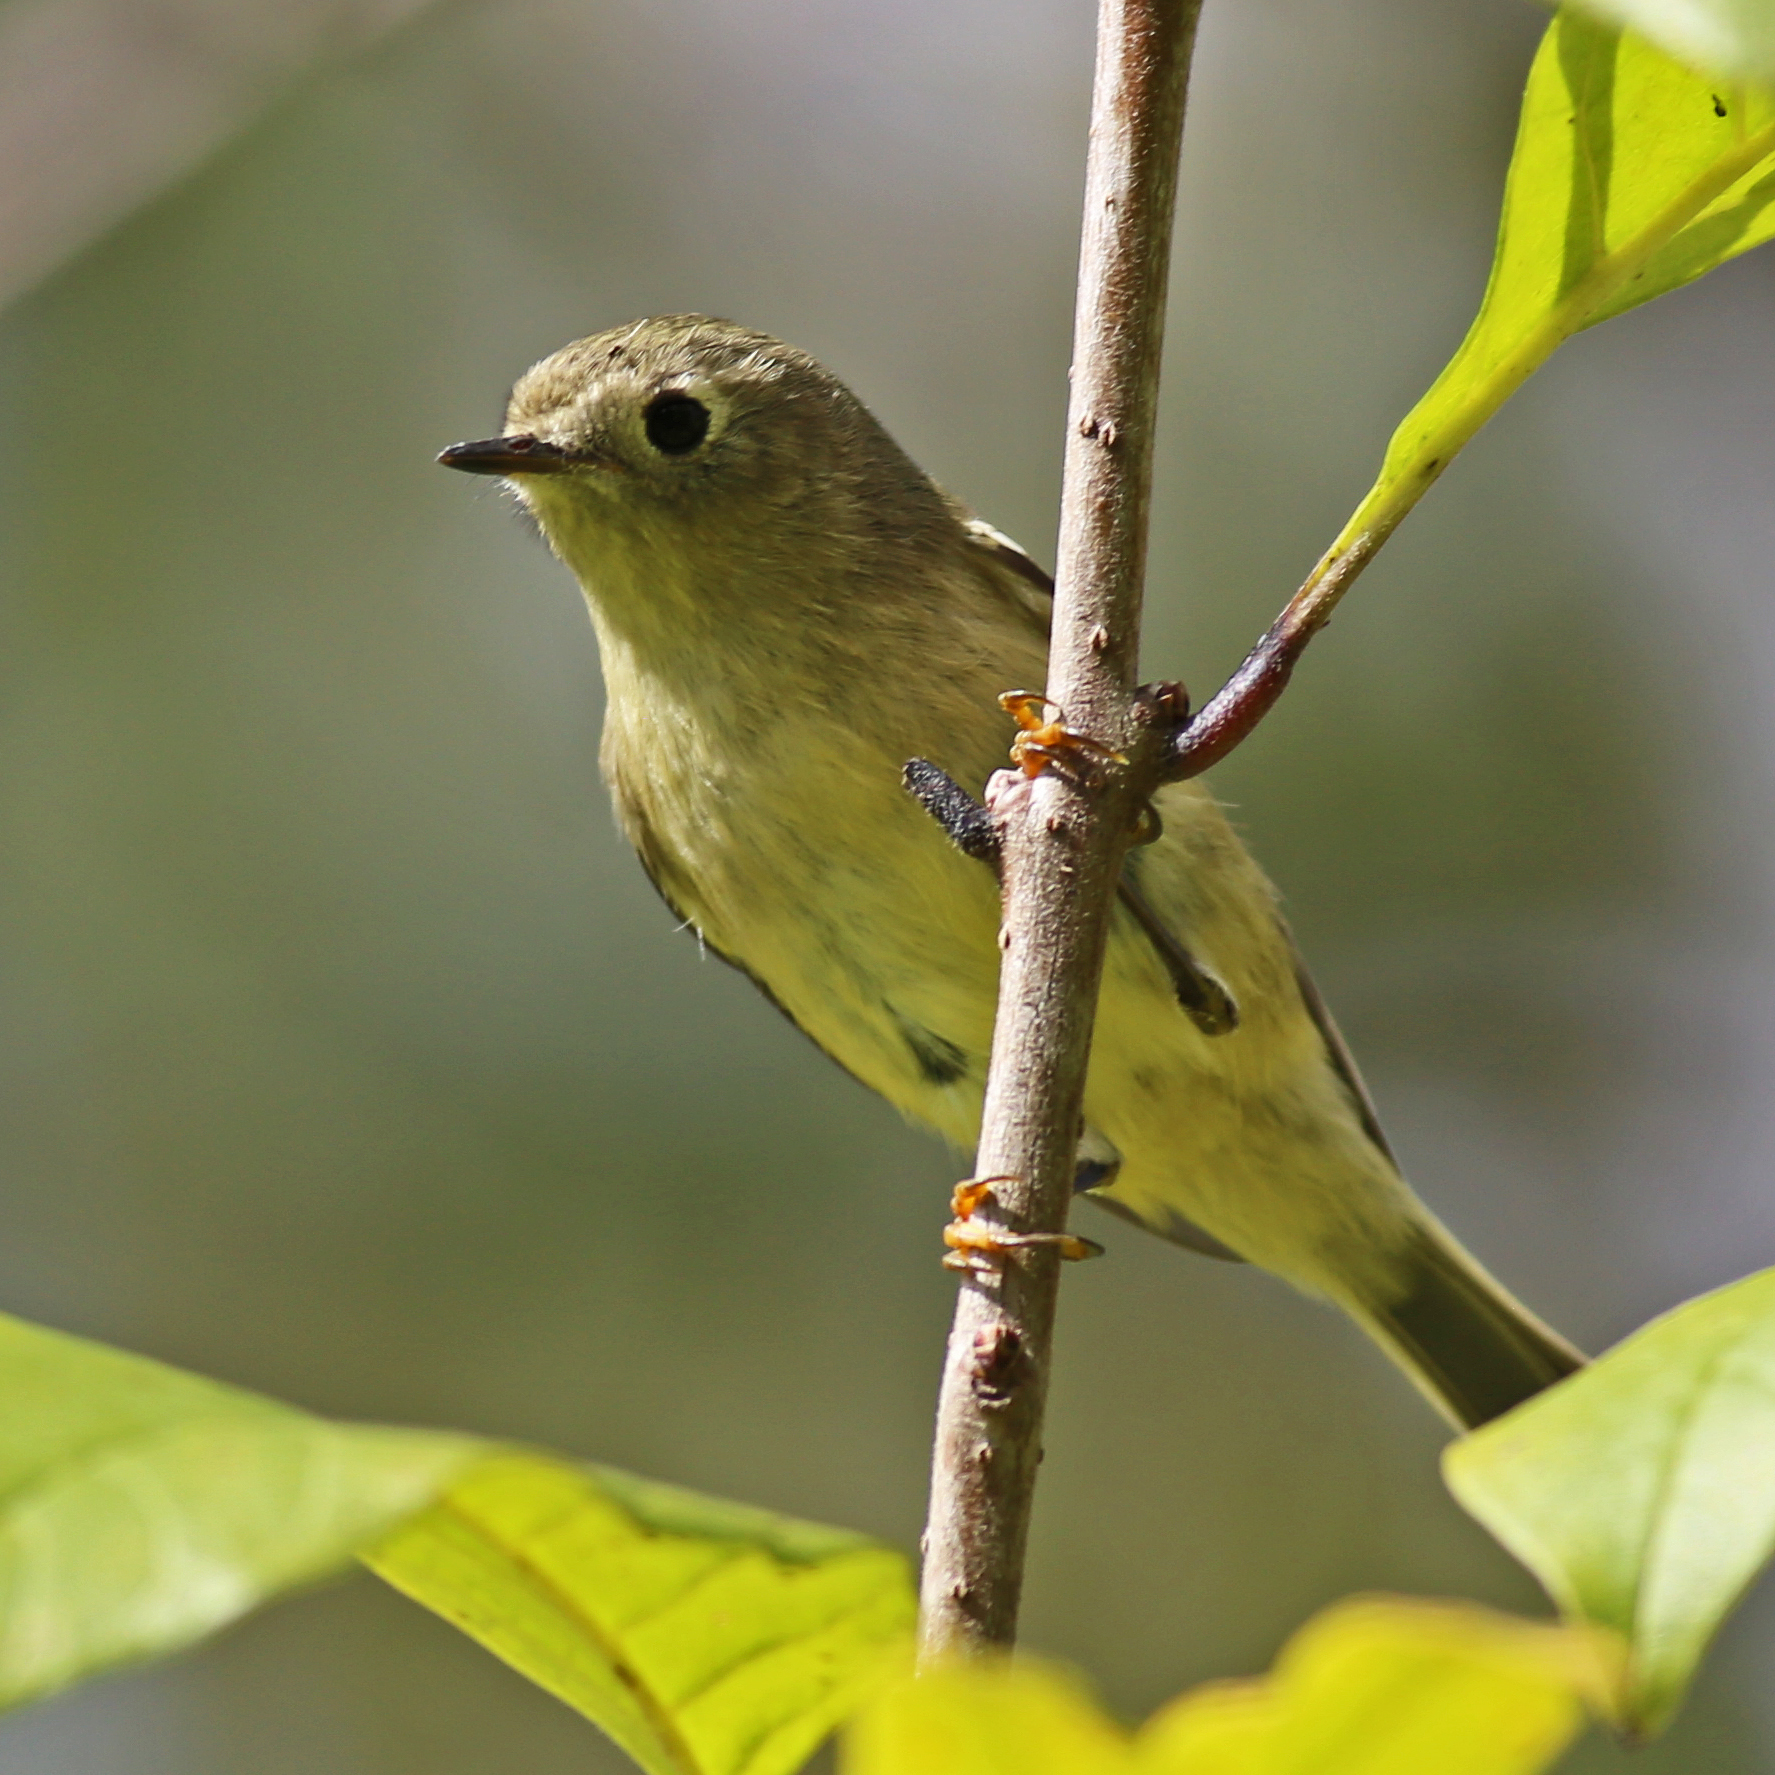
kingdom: Animalia
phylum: Chordata
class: Aves
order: Passeriformes
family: Regulidae
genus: Regulus
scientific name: Regulus calendula
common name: Ruby-crowned kinglet
